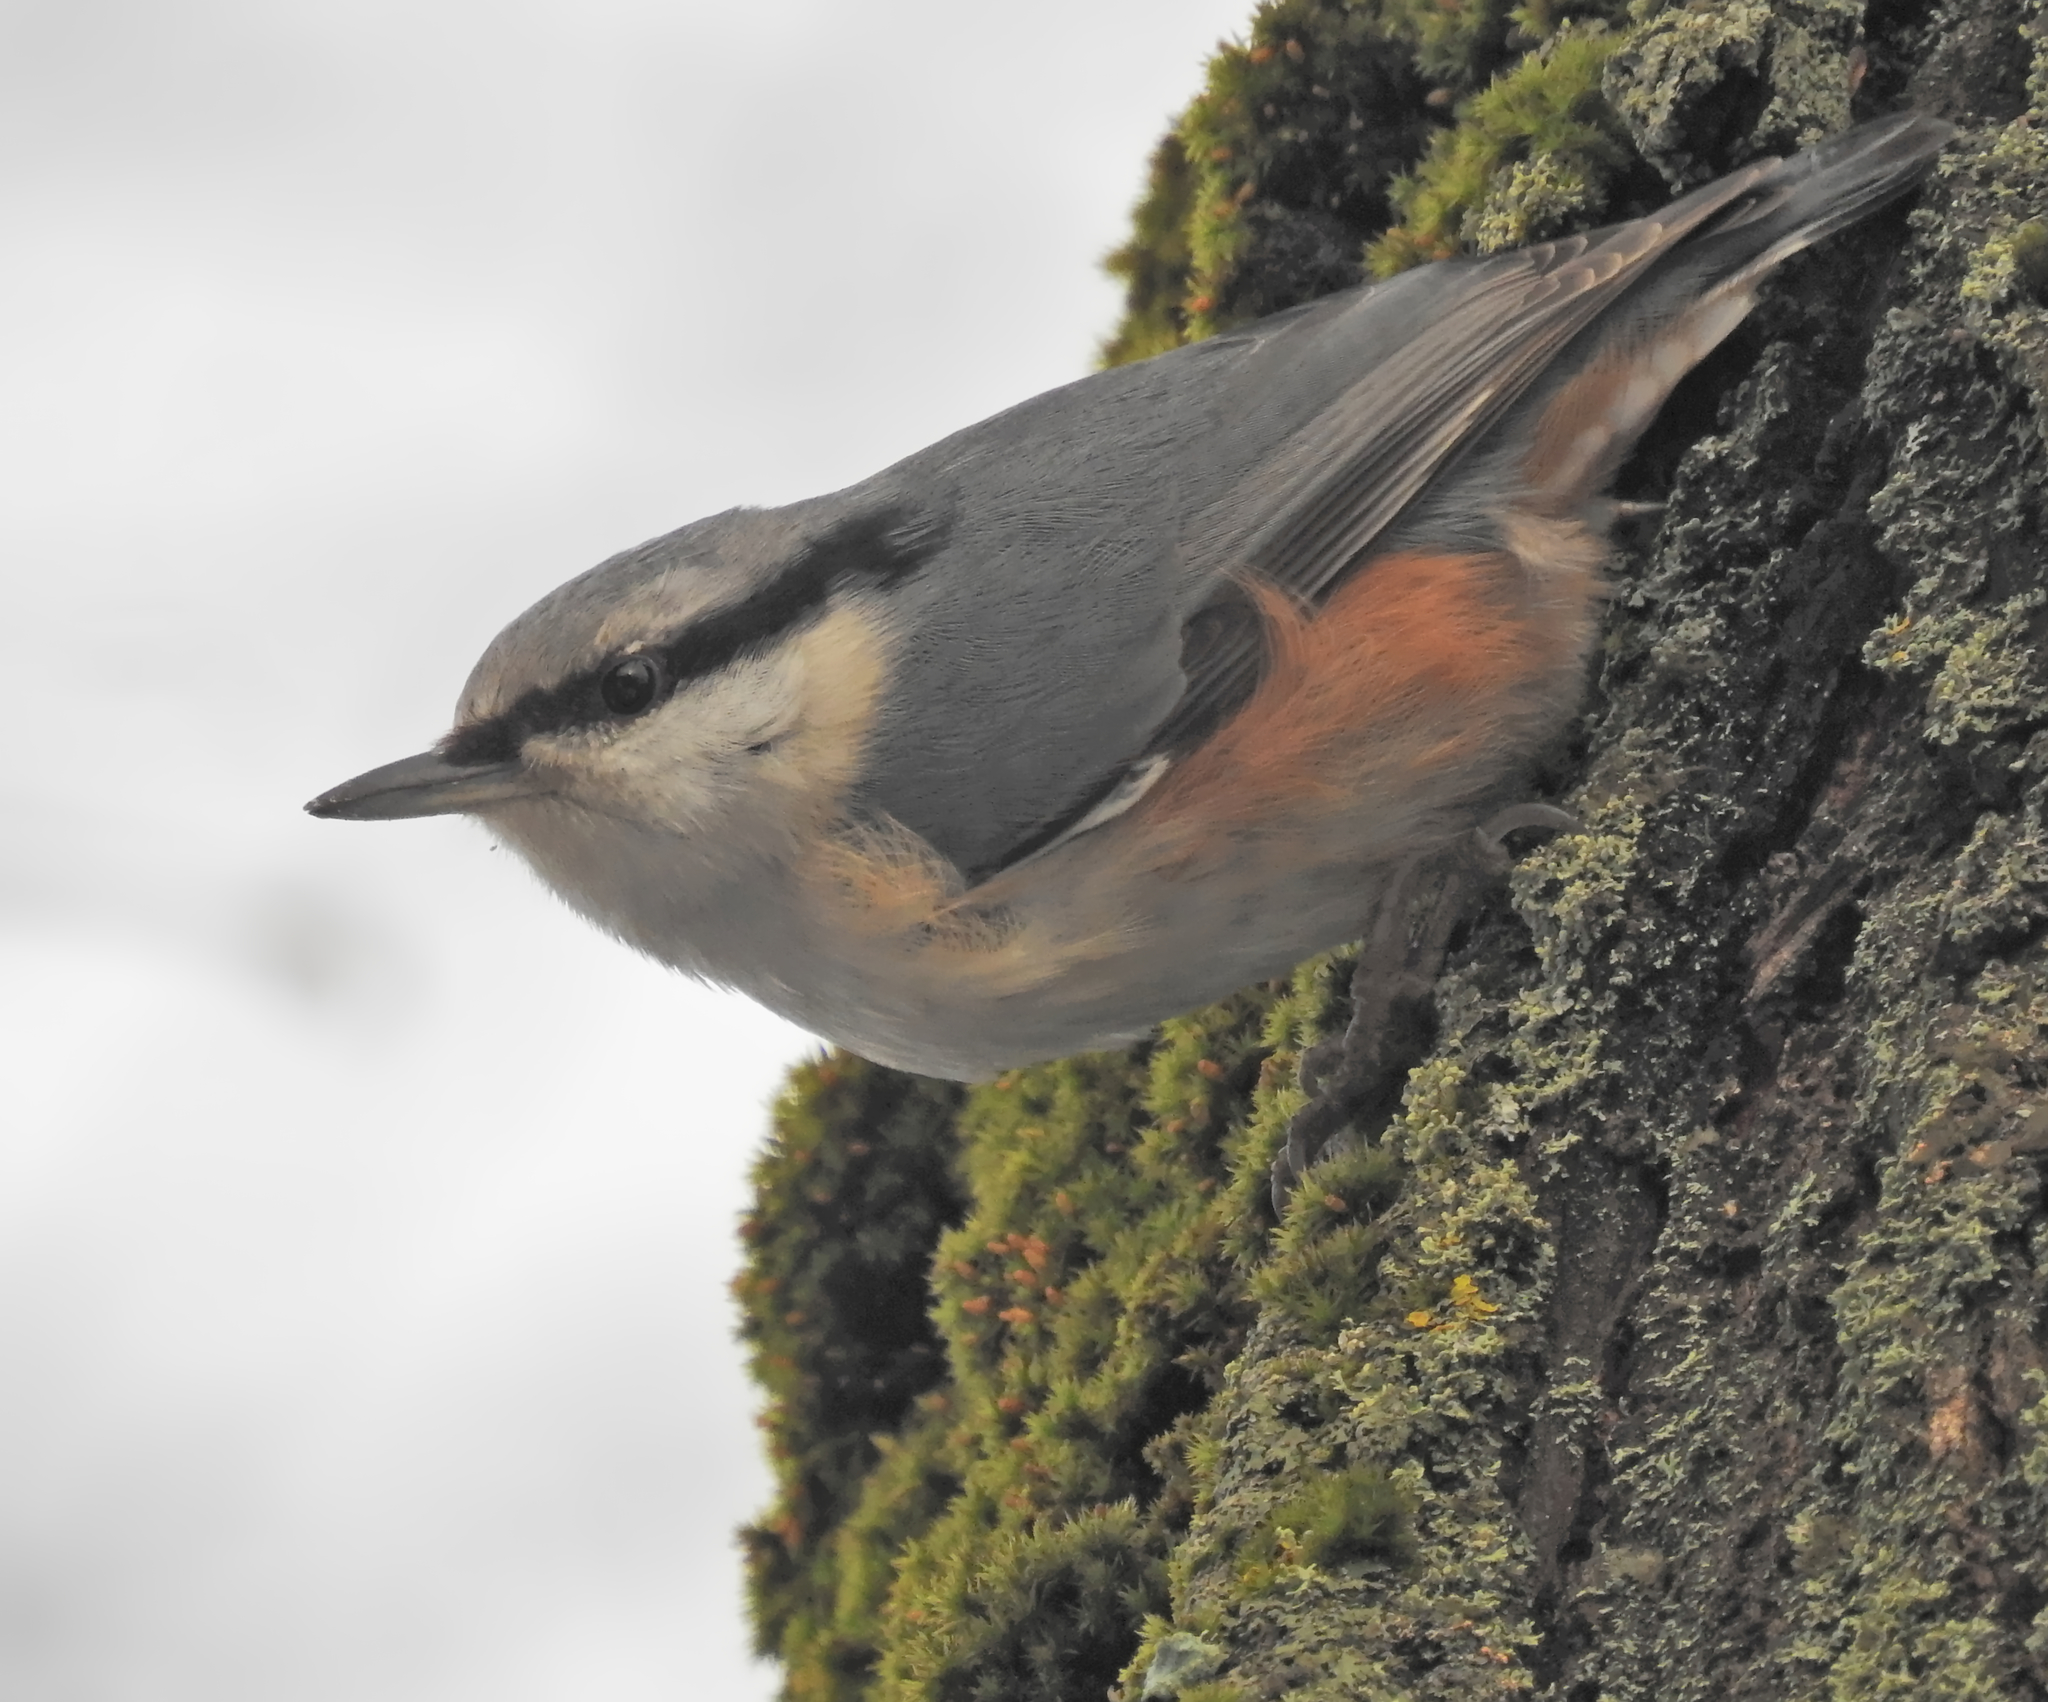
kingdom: Animalia
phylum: Chordata
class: Aves
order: Passeriformes
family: Sittidae
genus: Sitta
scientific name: Sitta europaea
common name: Eurasian nuthatch
